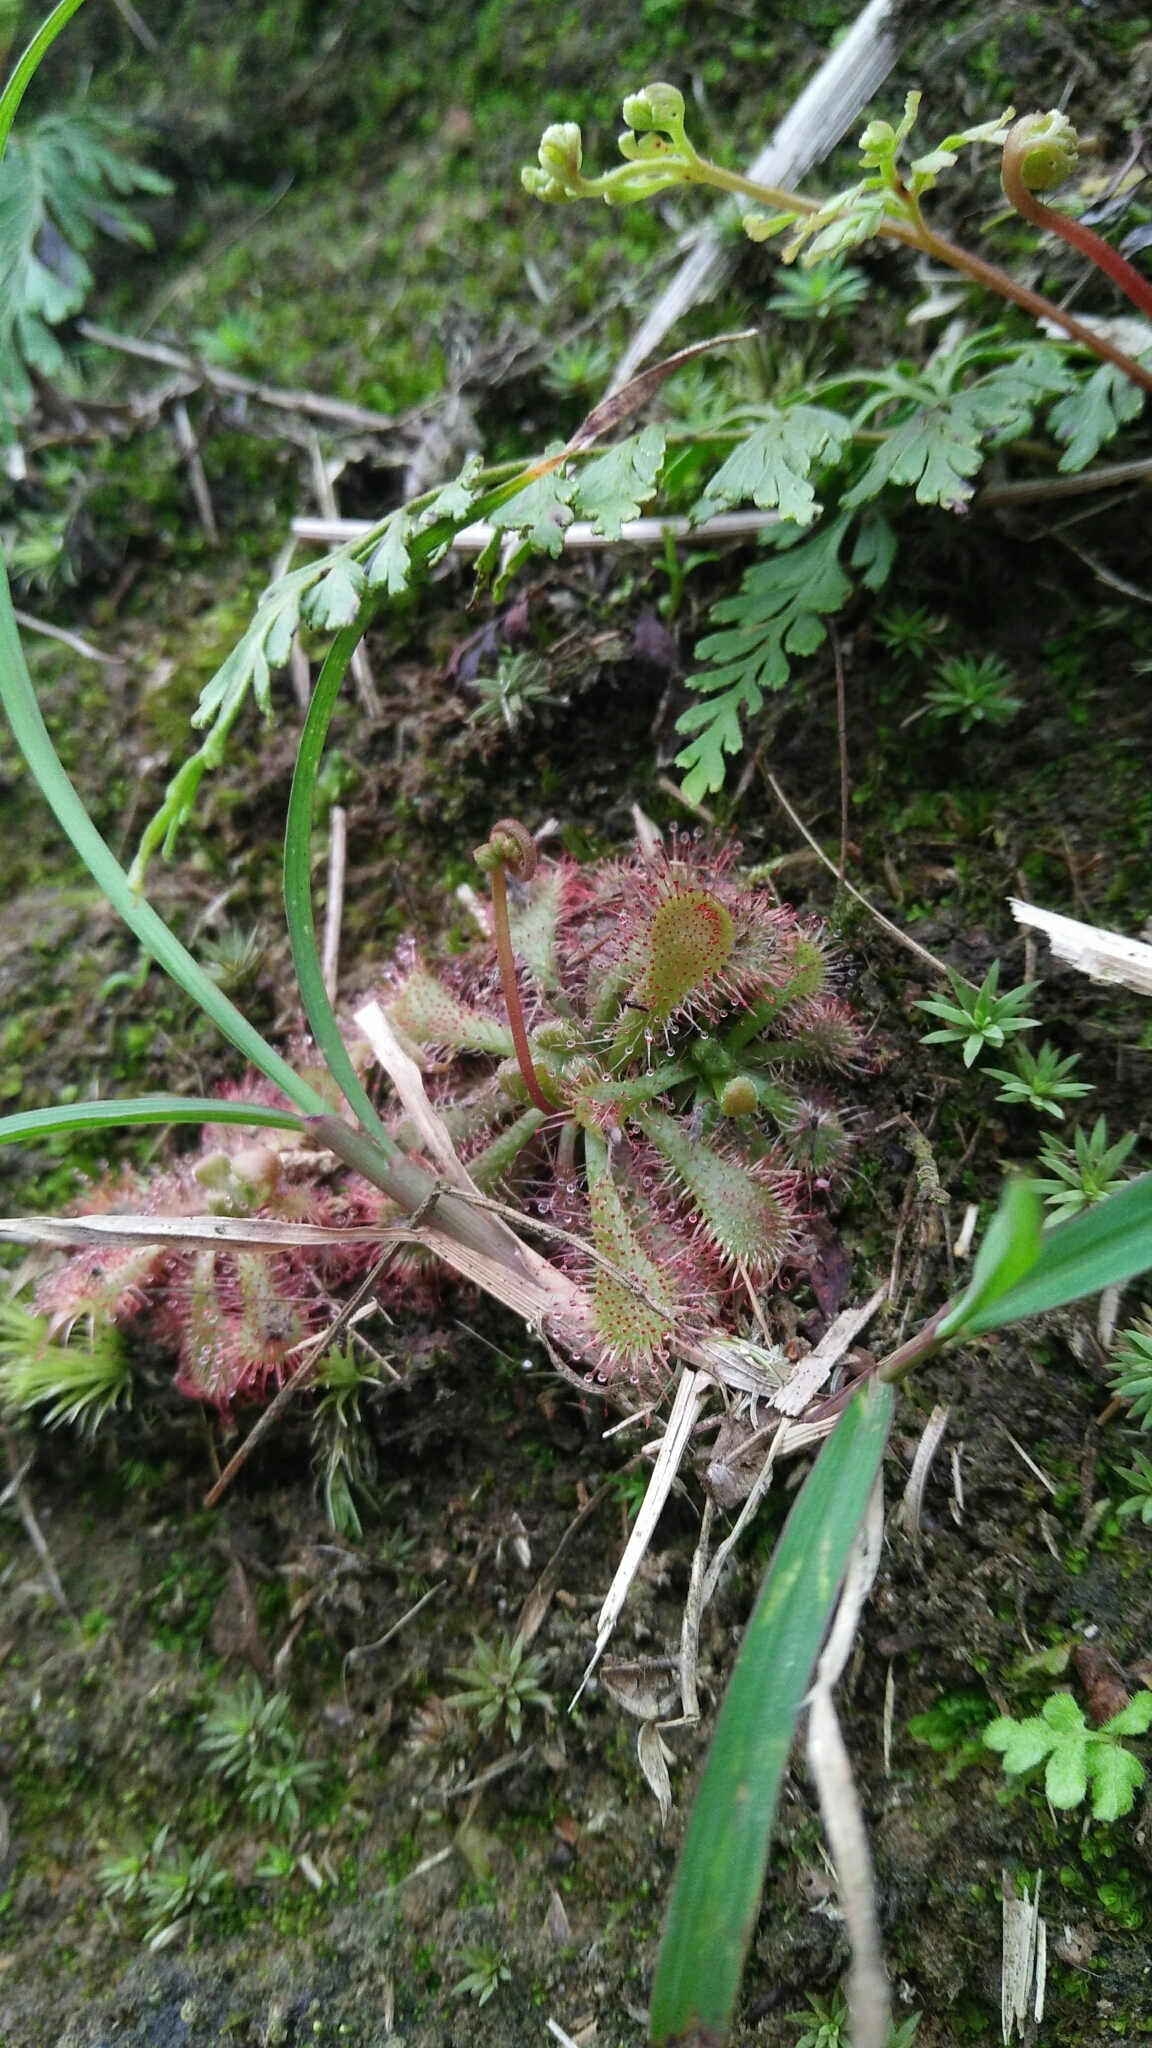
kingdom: Plantae
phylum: Tracheophyta
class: Magnoliopsida
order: Caryophyllales
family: Droseraceae
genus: Drosera
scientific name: Drosera spatulata
